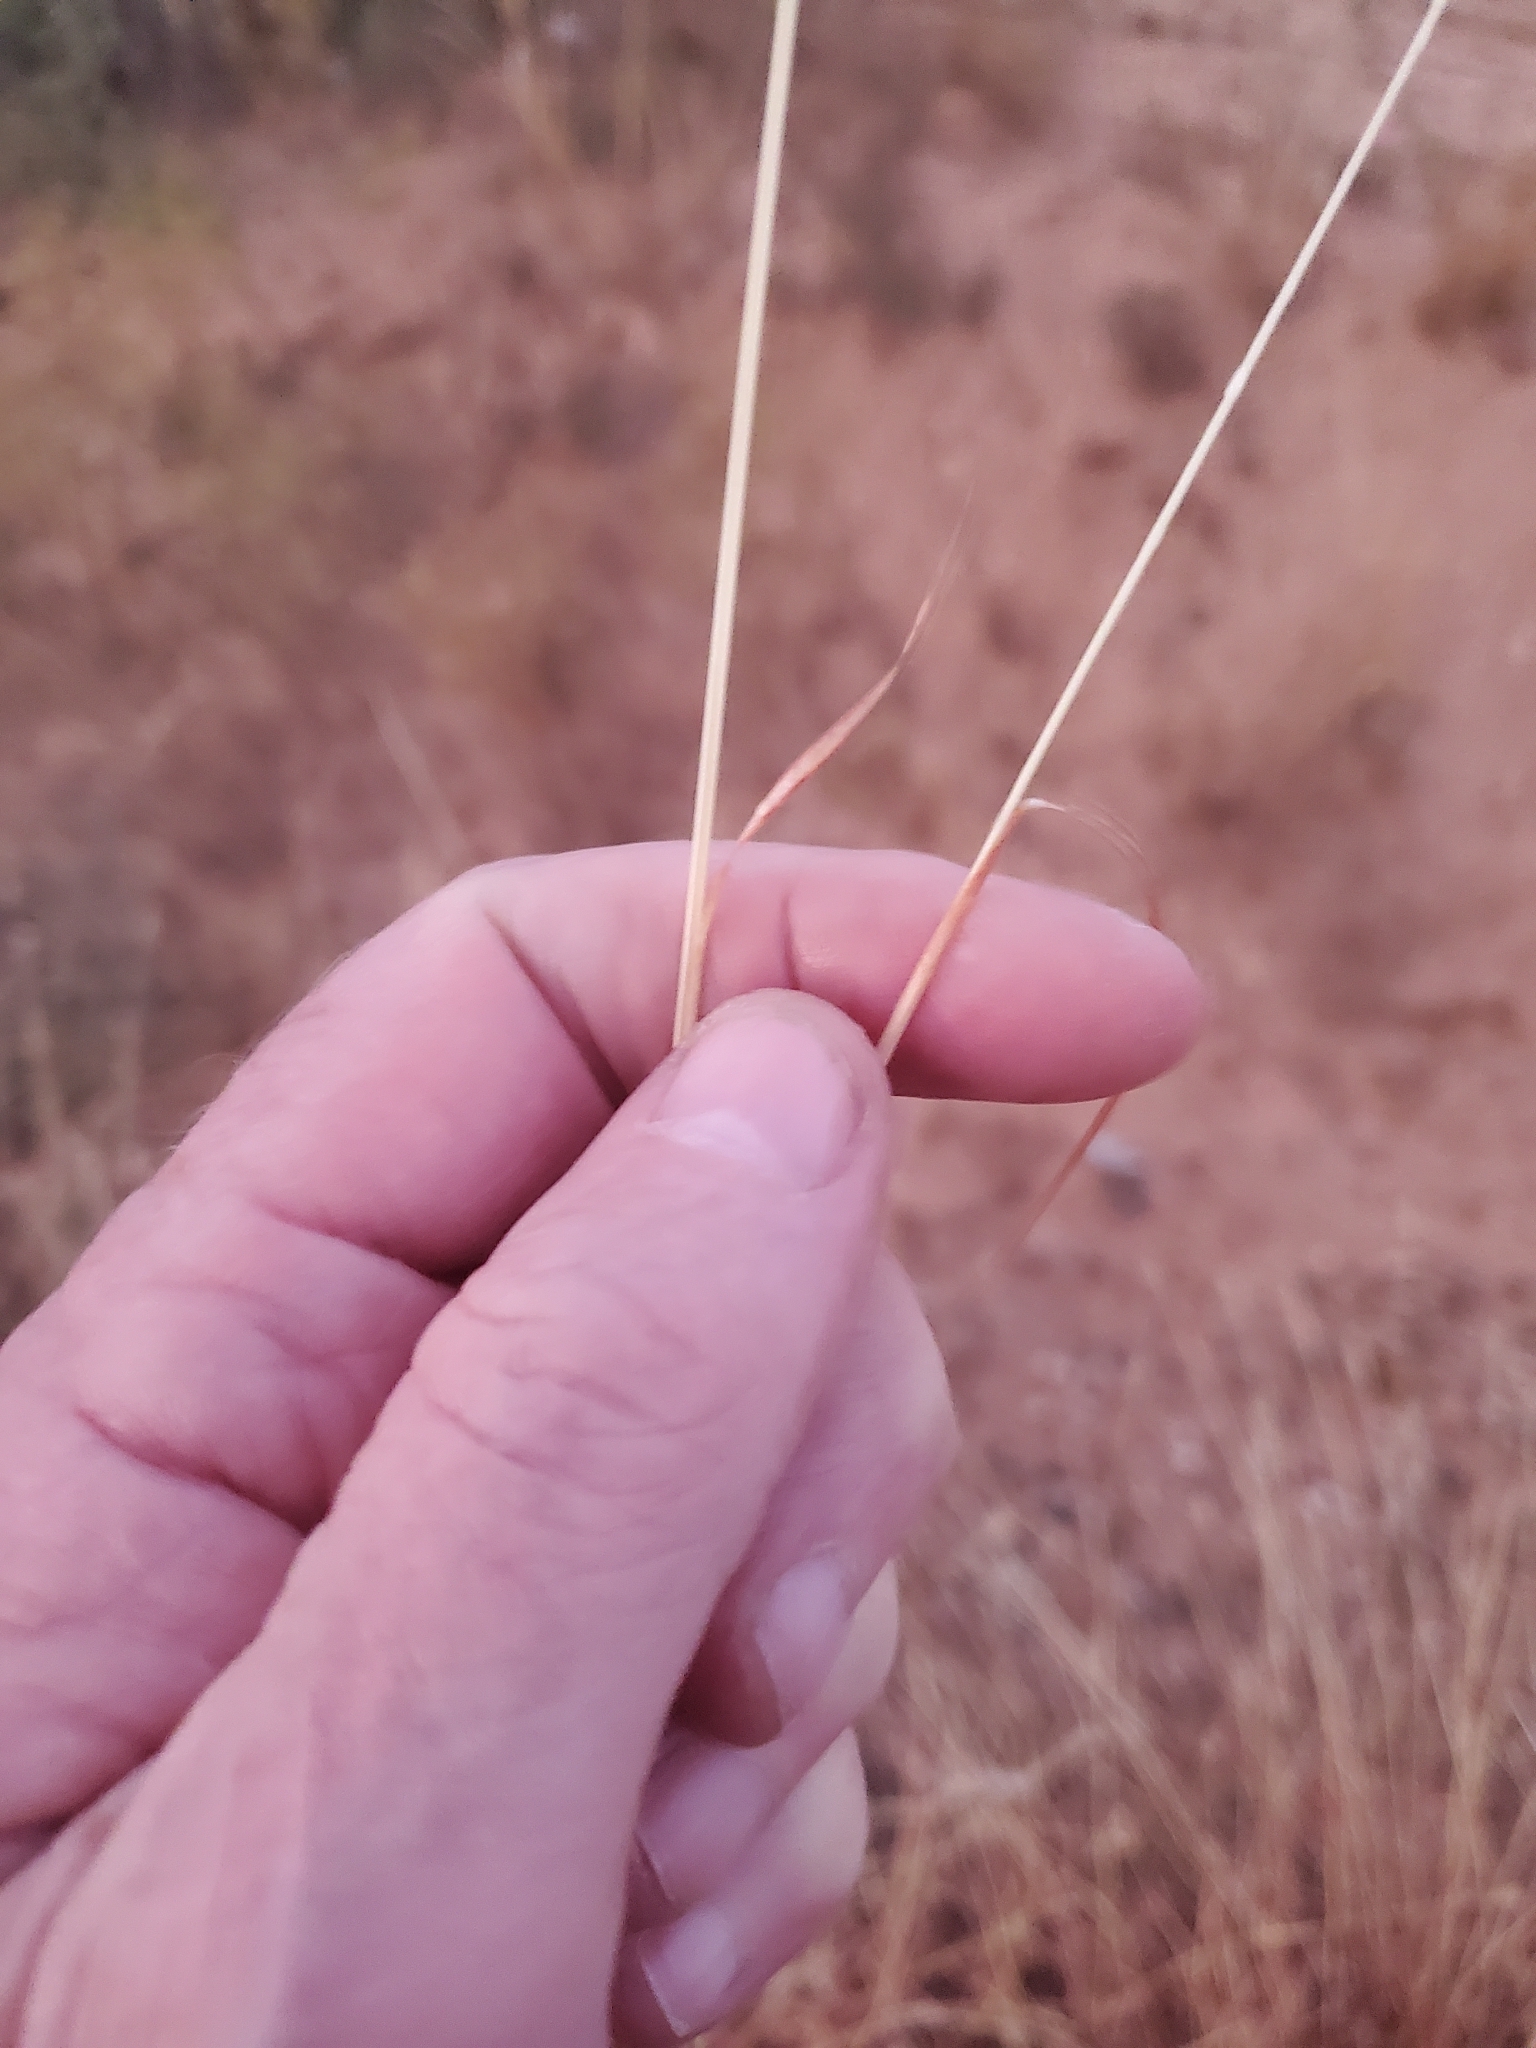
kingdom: Plantae
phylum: Tracheophyta
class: Liliopsida
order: Poales
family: Poaceae
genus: Bothriochloa
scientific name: Bothriochloa ischaemum
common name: Yellow bluestem
